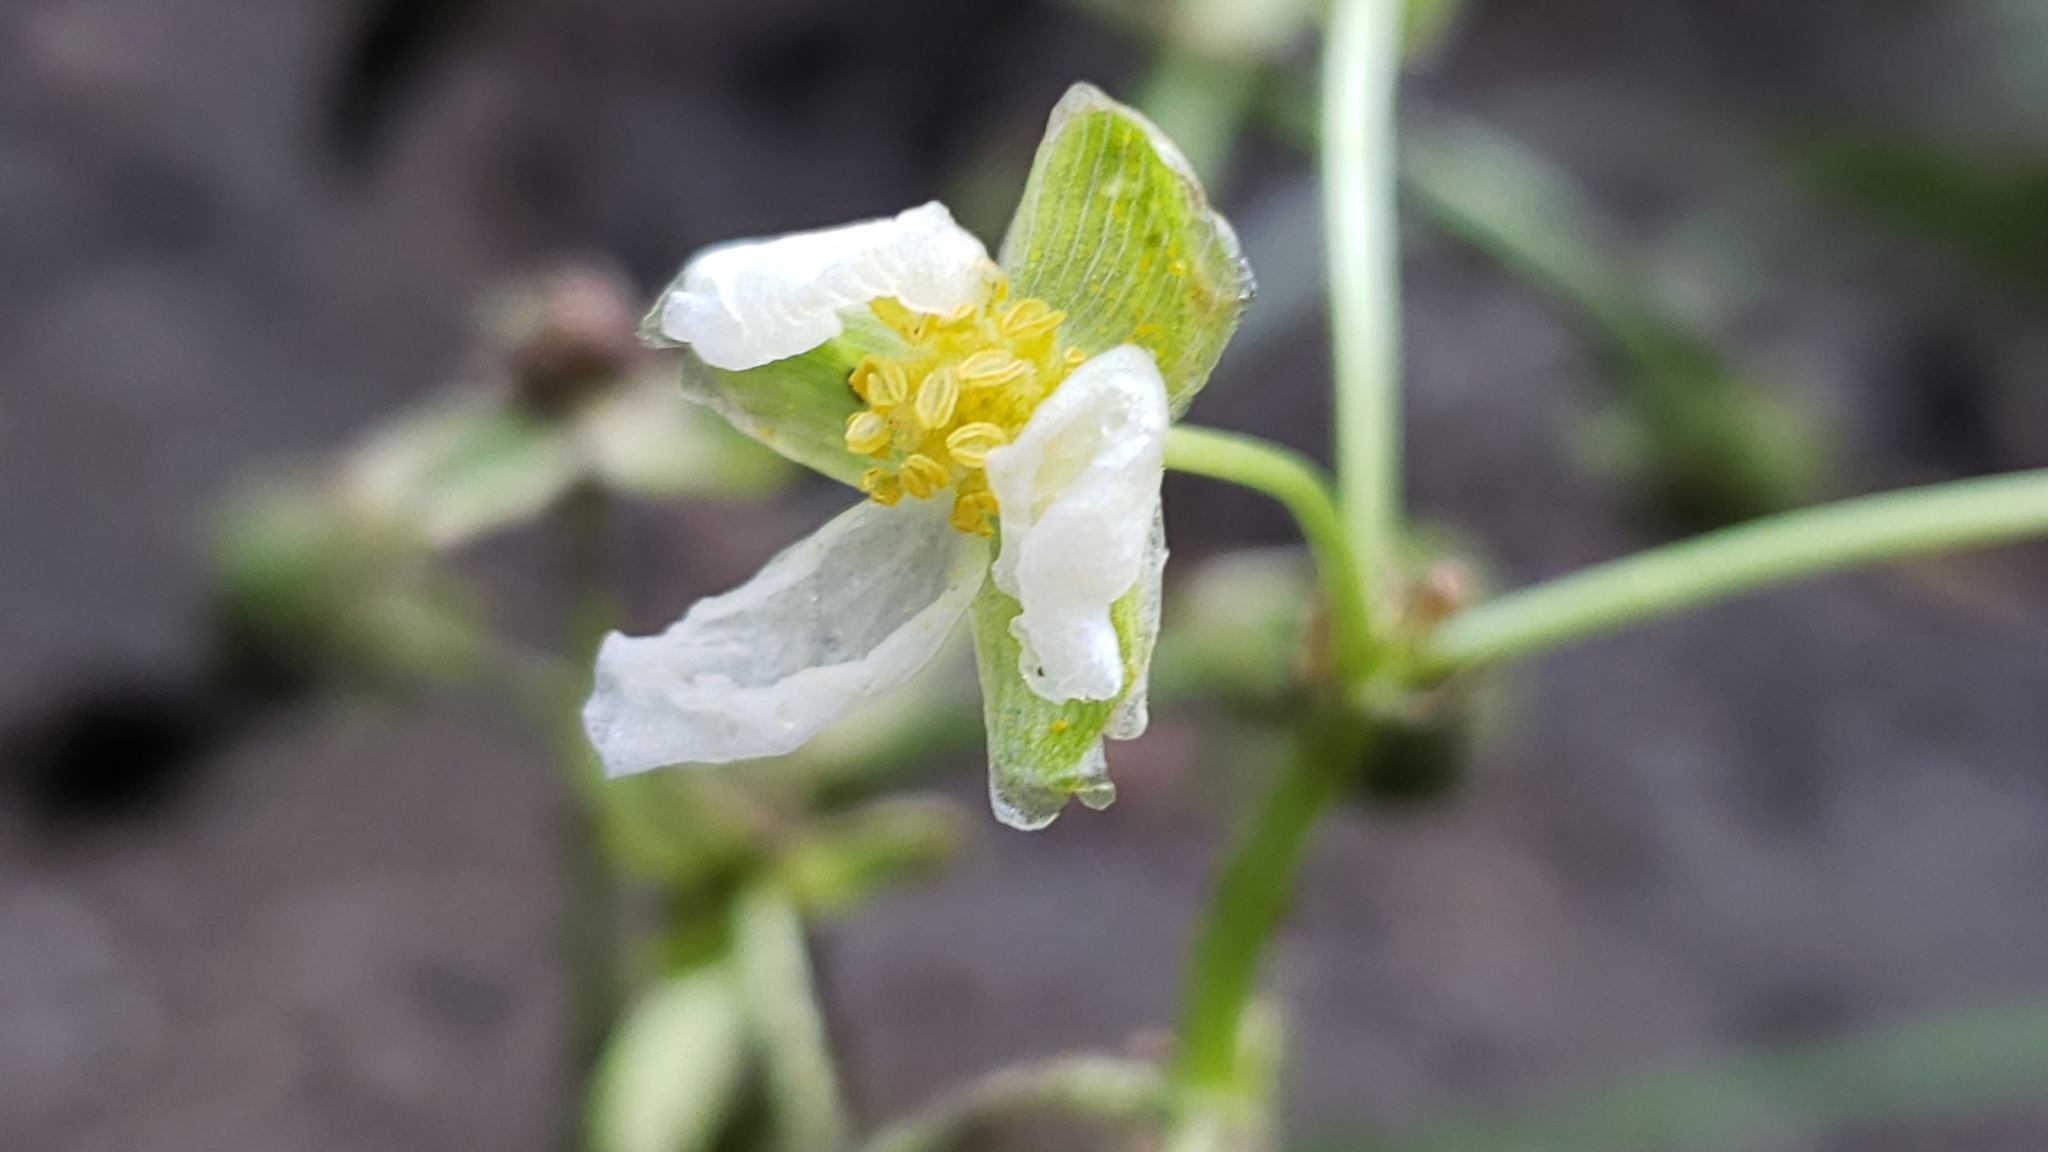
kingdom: Plantae
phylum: Tracheophyta
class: Liliopsida
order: Alismatales
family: Alismataceae
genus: Sagittaria
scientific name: Sagittaria platyphylla
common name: Broad-leaf arrowhead
